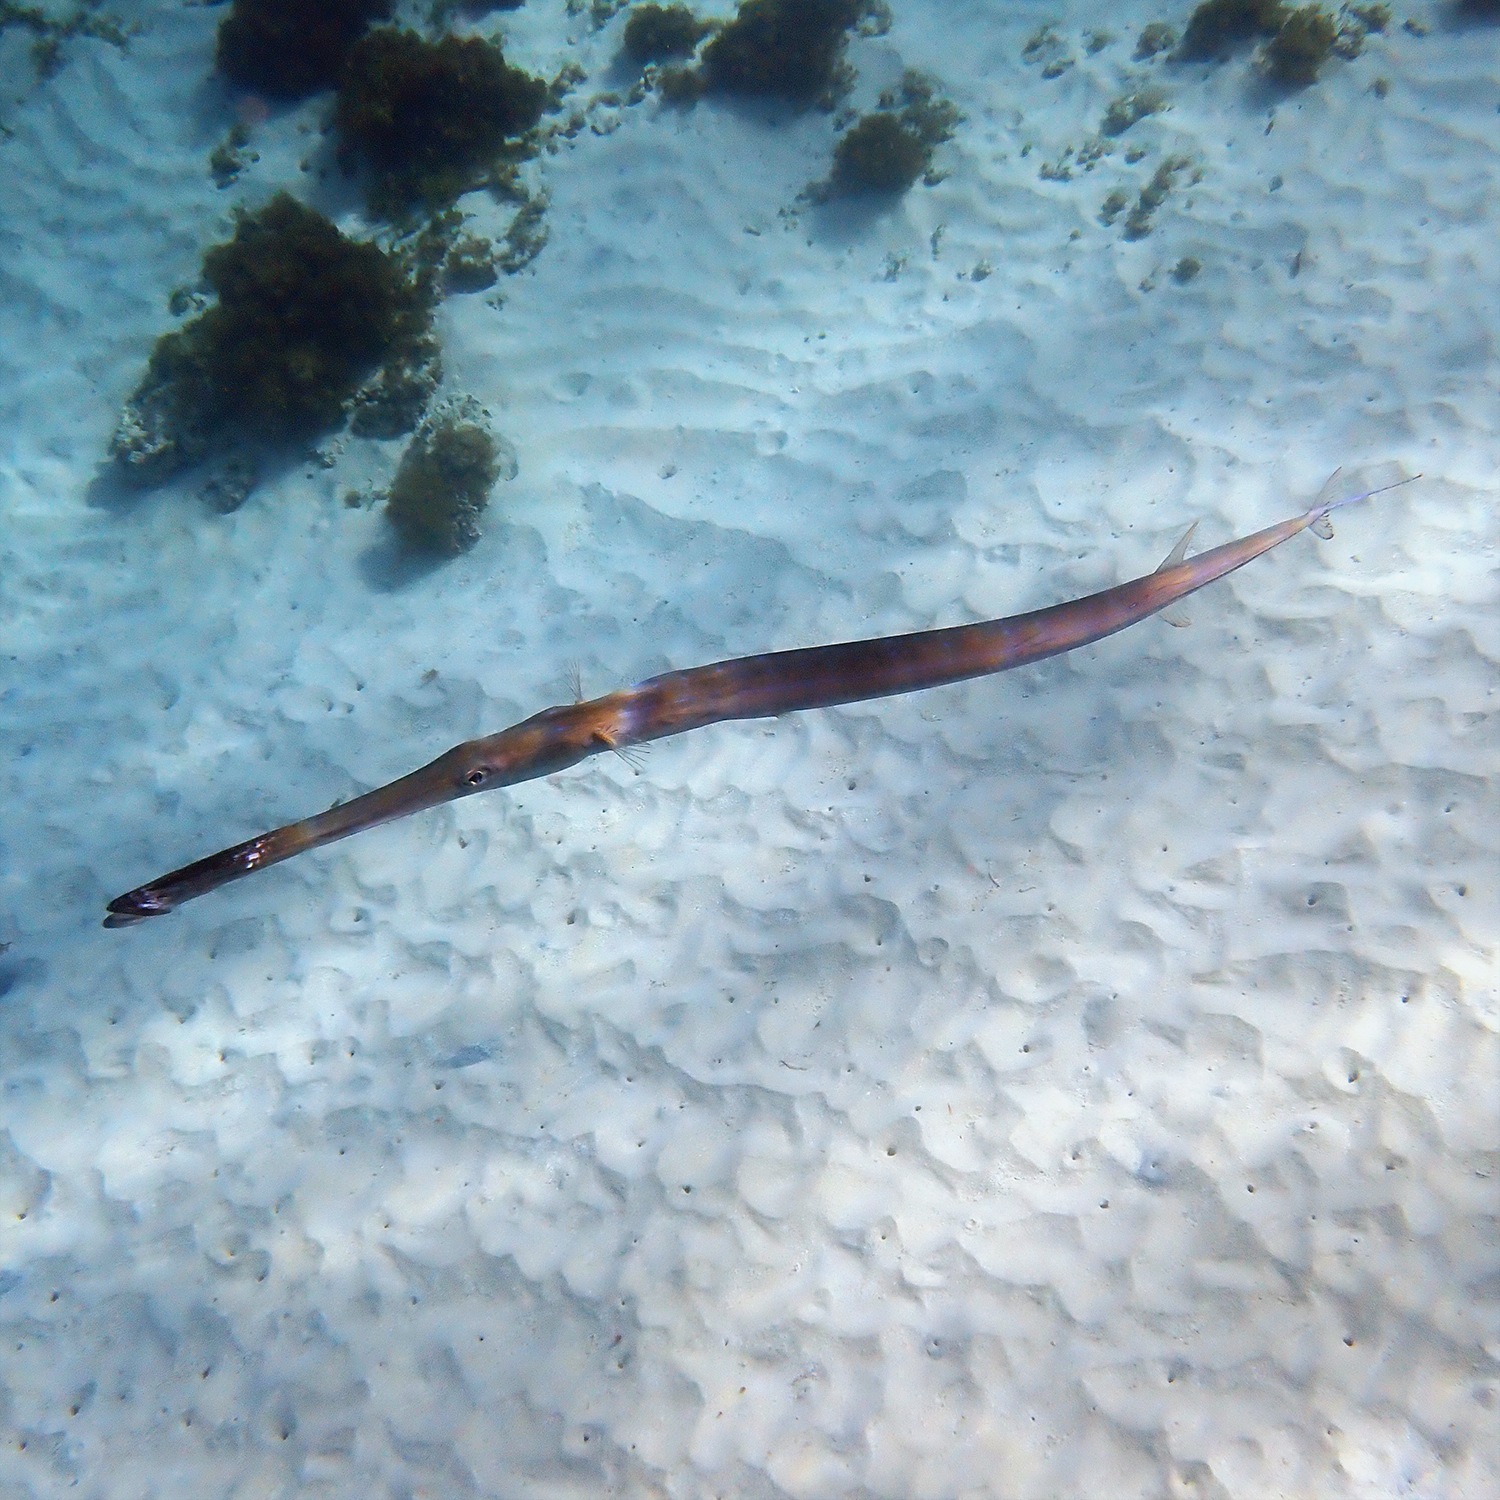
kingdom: Animalia
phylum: Chordata
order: Syngnathiformes
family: Fistulariidae
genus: Fistularia
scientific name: Fistularia commersonii
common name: Bluespotted cornetfish
